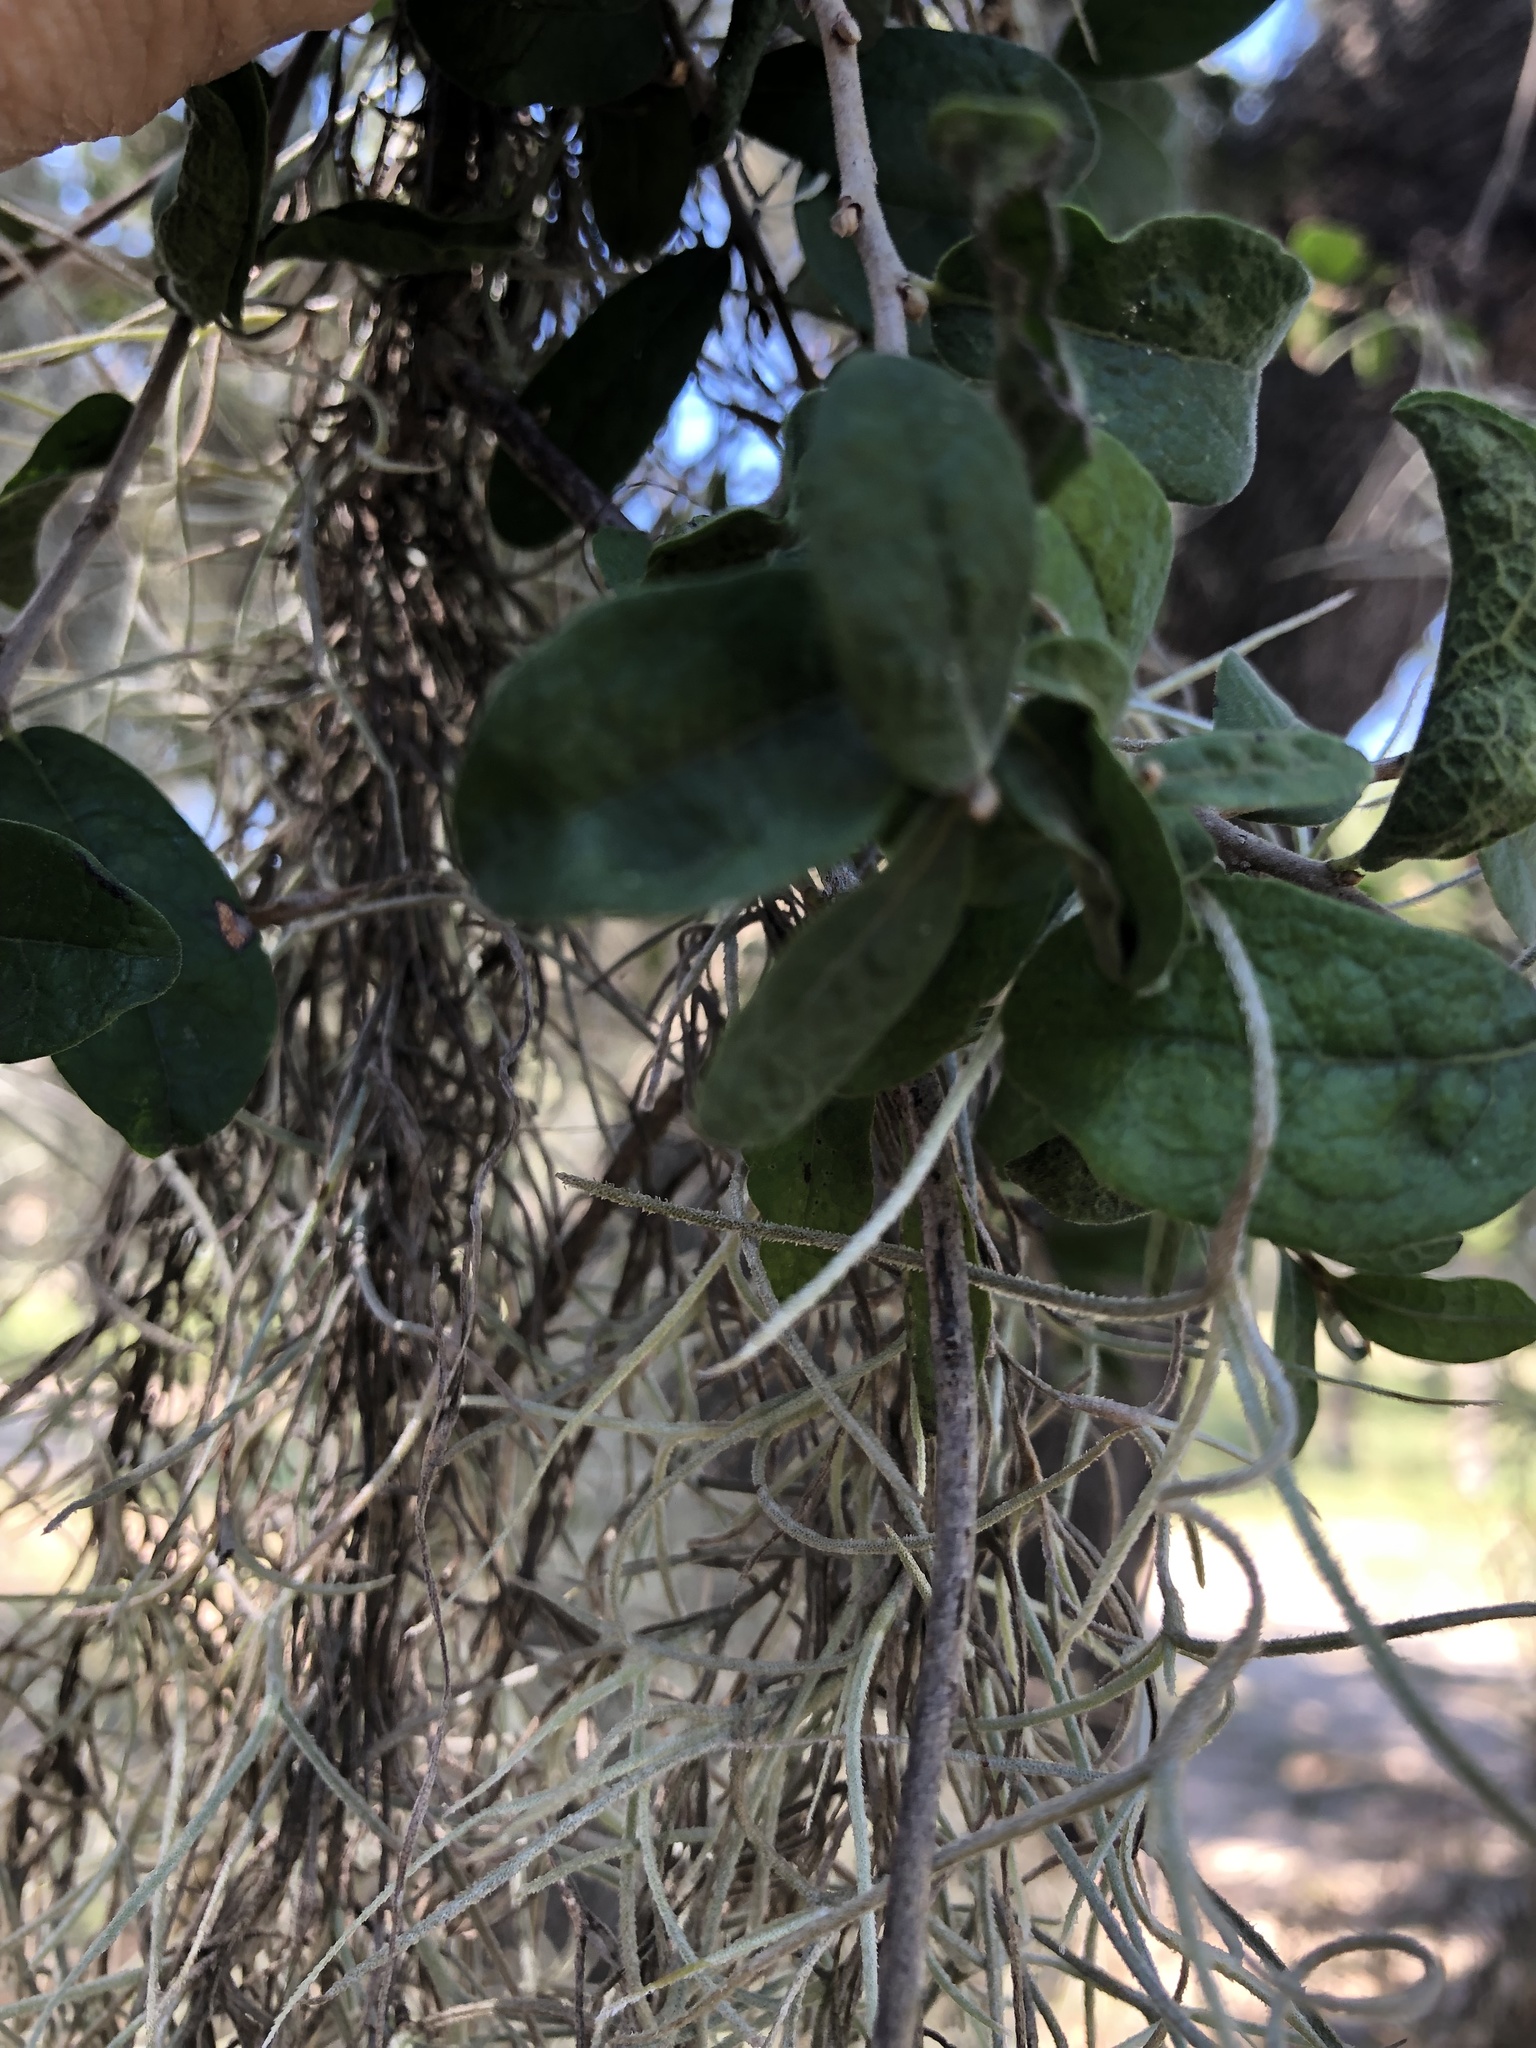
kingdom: Plantae
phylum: Tracheophyta
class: Magnoliopsida
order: Ericales
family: Ebenaceae
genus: Diospyros
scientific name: Diospyros texana
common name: Texas persimmon
